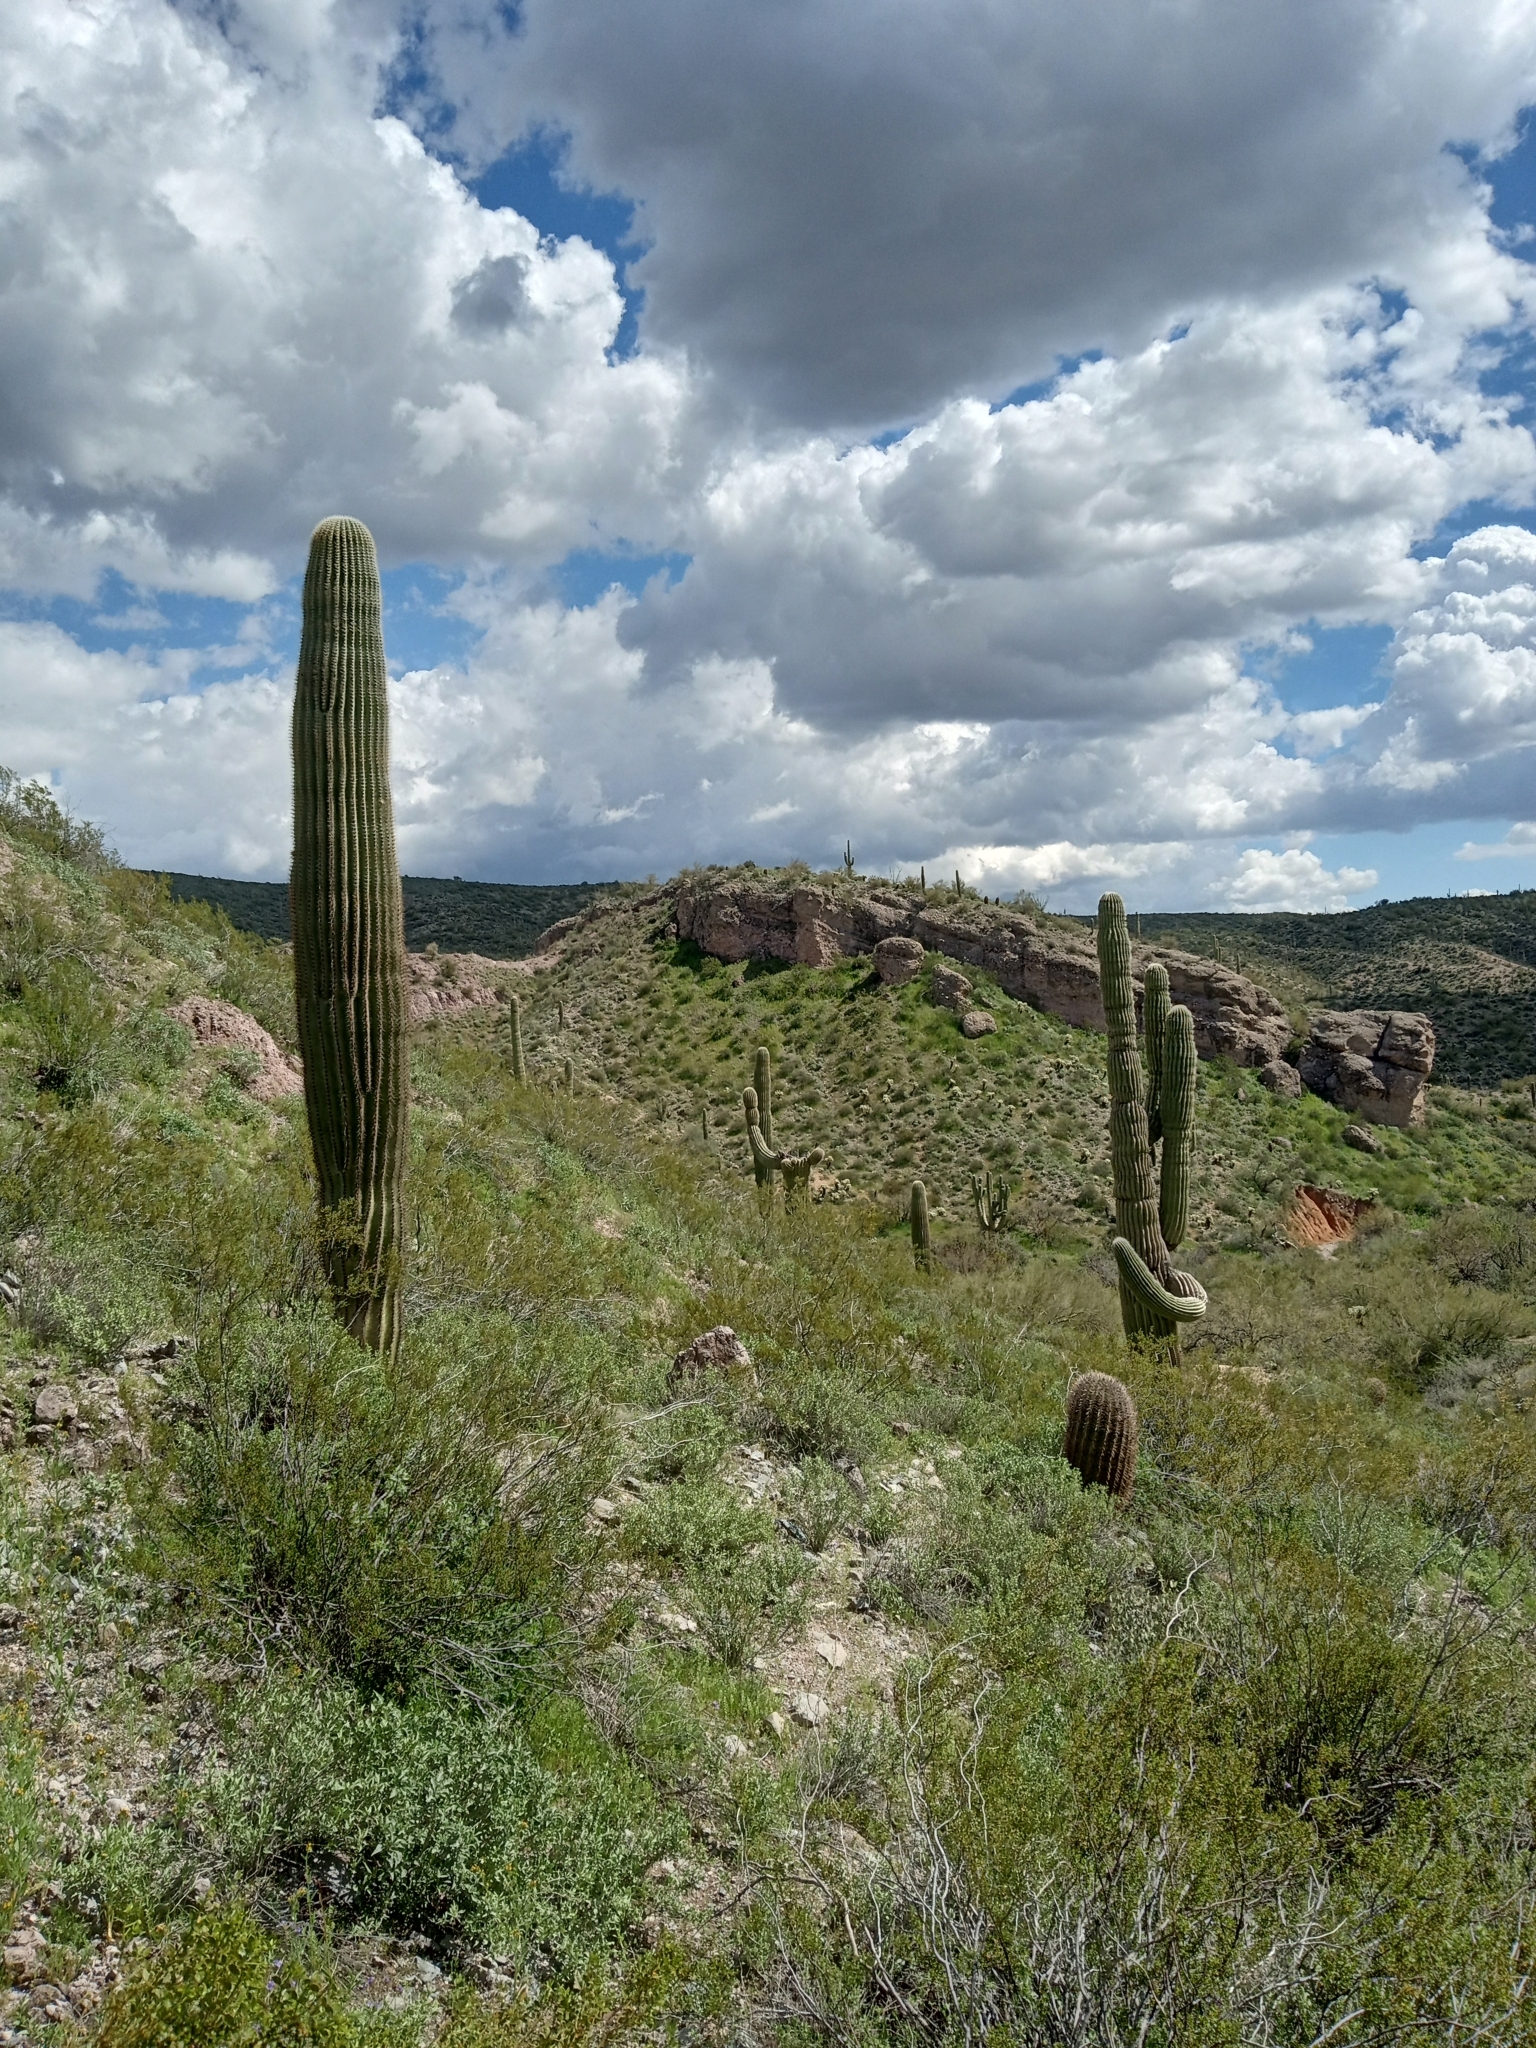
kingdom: Plantae
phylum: Tracheophyta
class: Magnoliopsida
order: Caryophyllales
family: Cactaceae
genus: Carnegiea
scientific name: Carnegiea gigantea
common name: Saguaro
